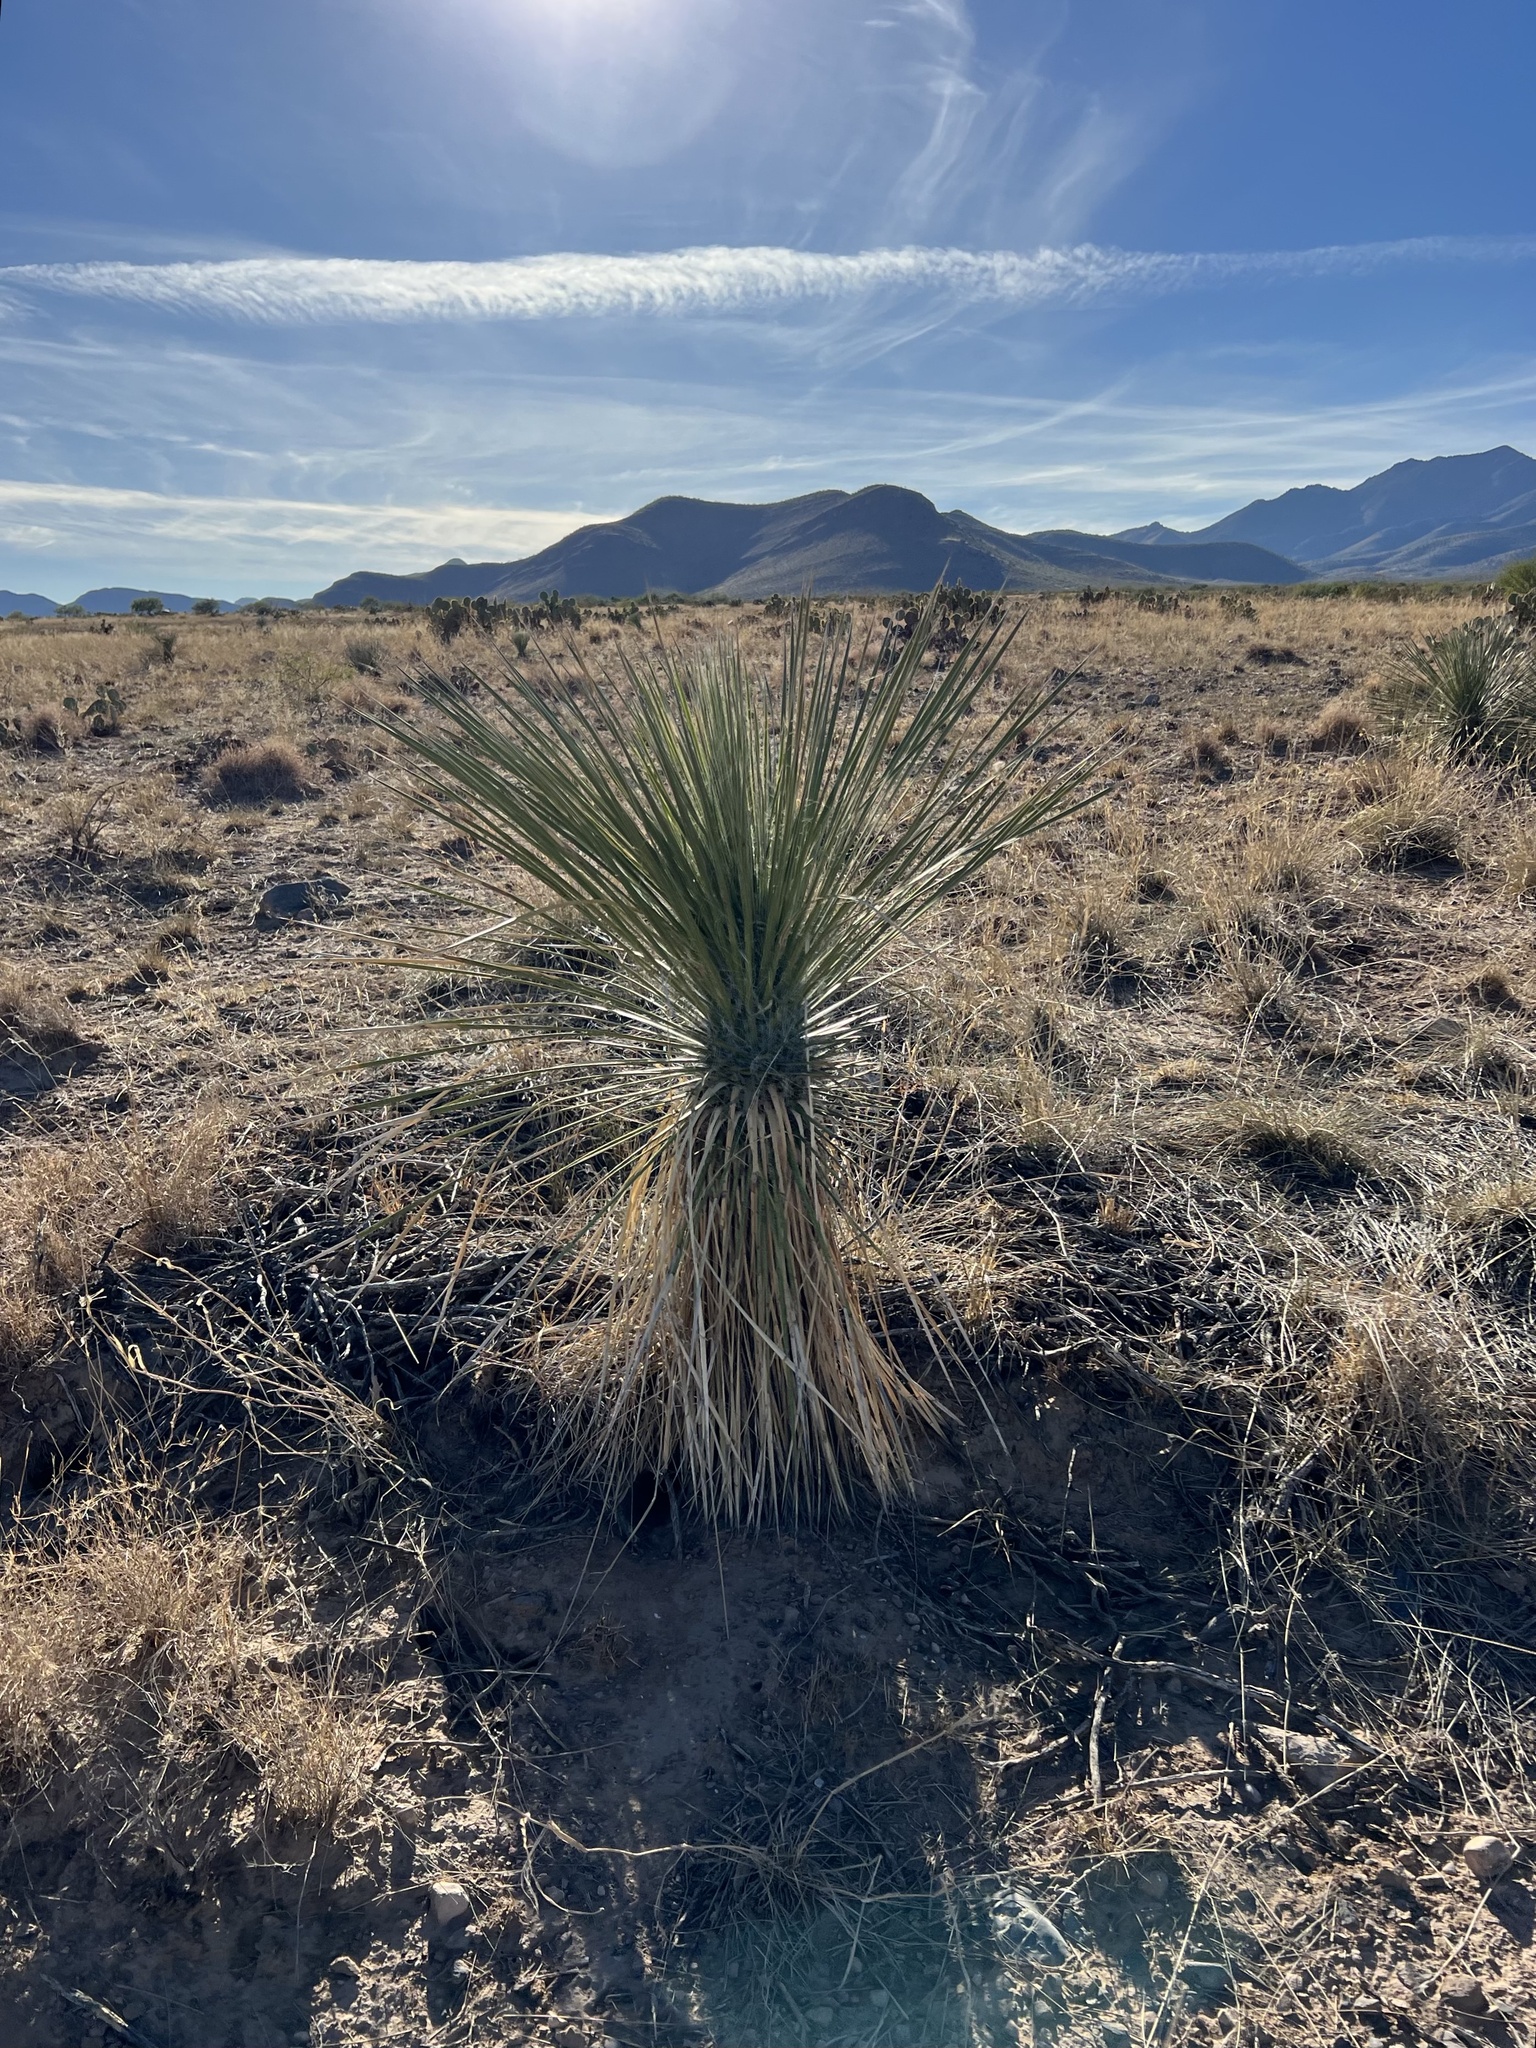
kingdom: Plantae
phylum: Tracheophyta
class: Liliopsida
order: Asparagales
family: Asparagaceae
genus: Yucca
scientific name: Yucca elata
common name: Palmella
